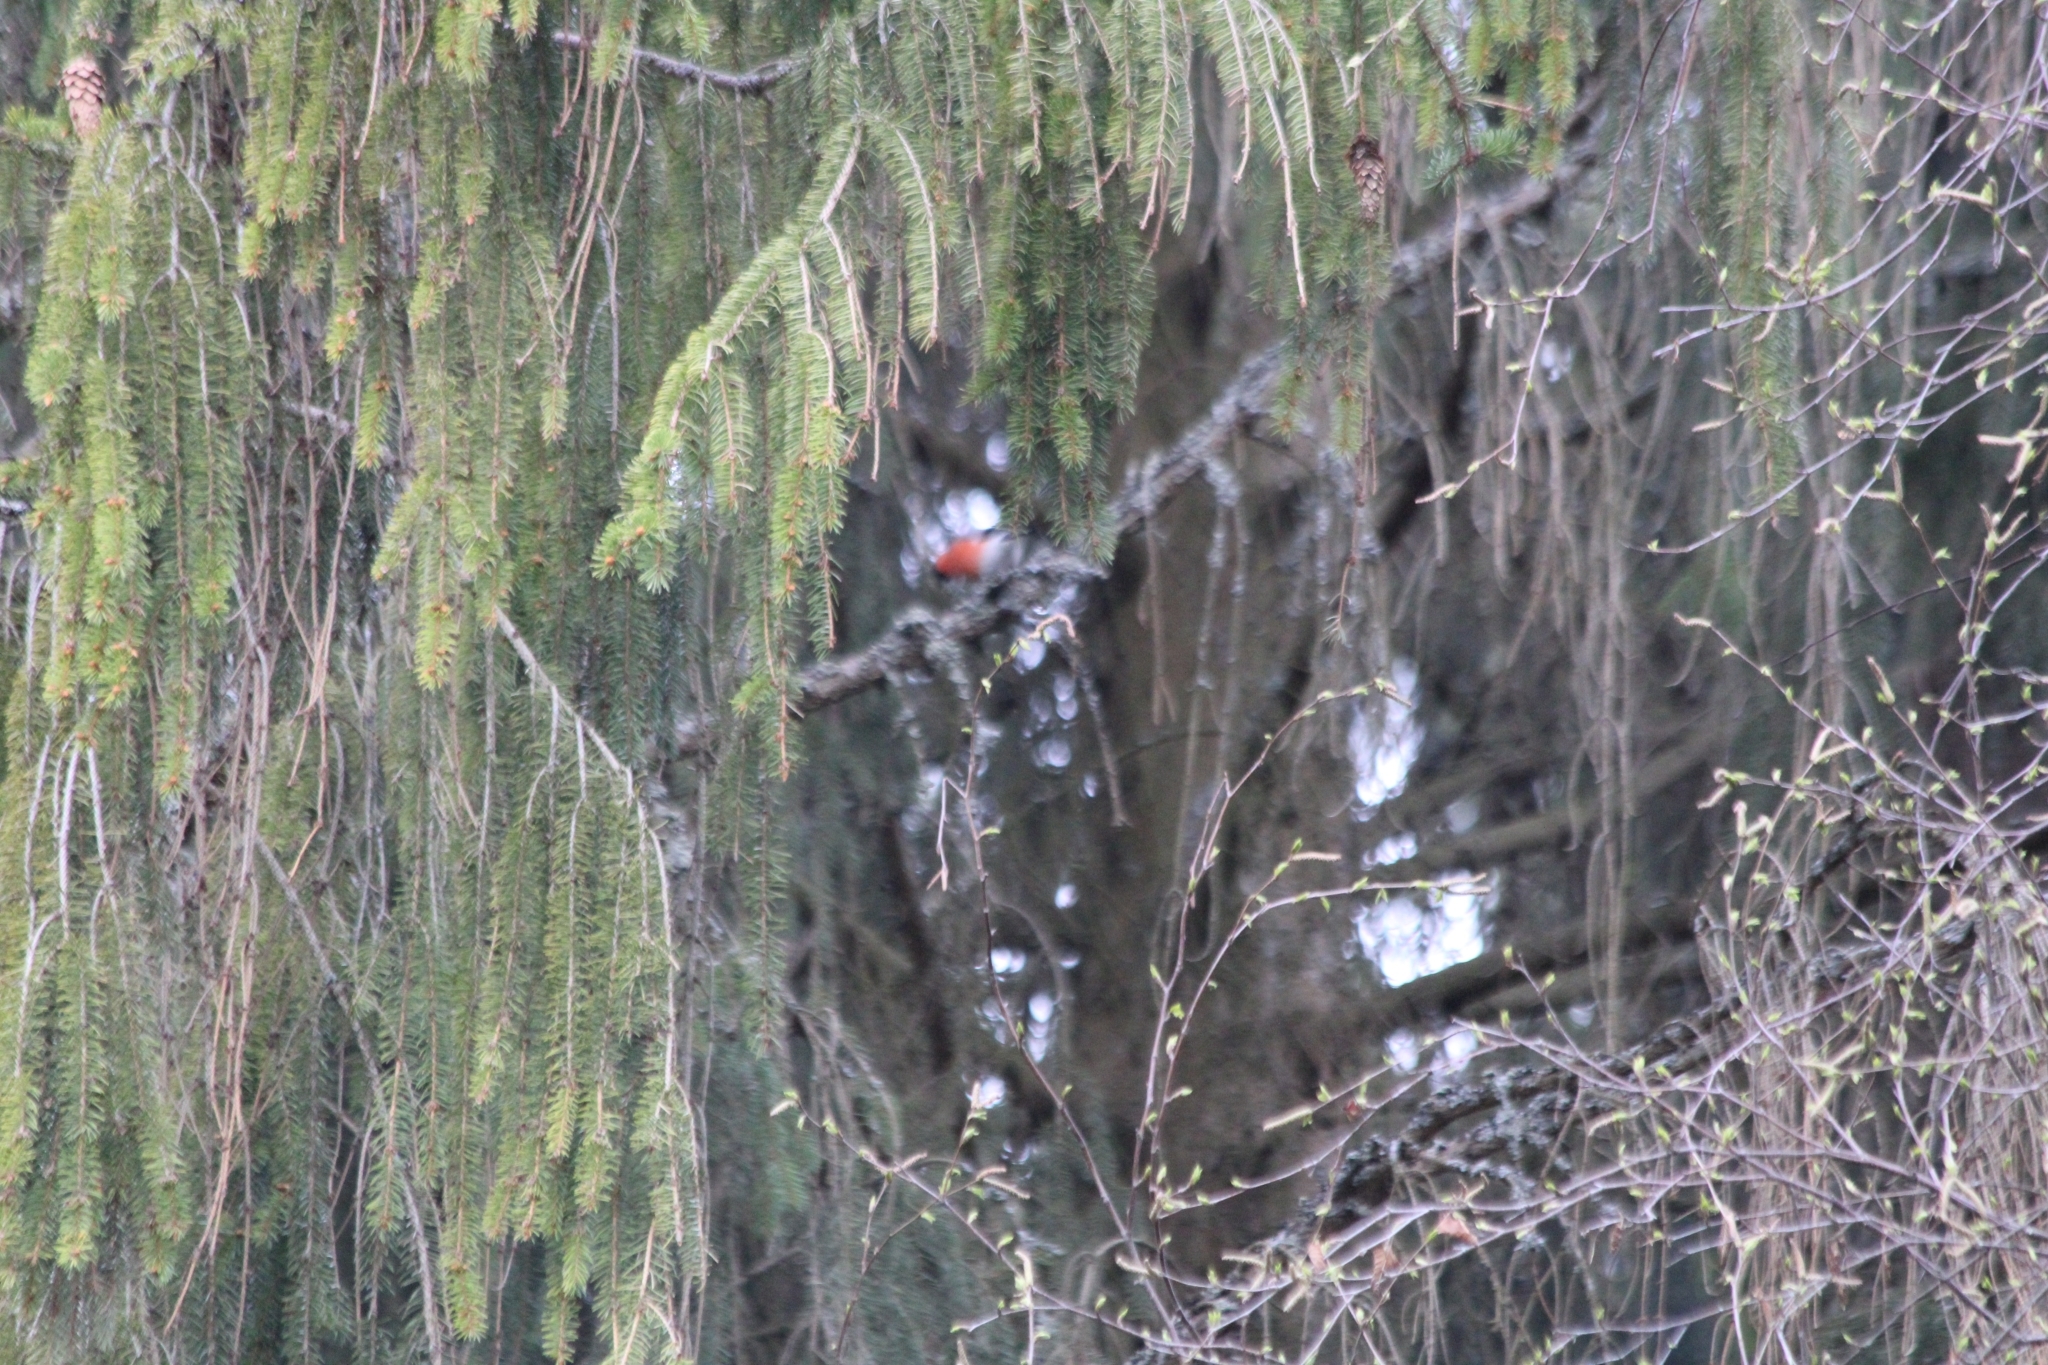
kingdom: Animalia
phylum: Chordata
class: Aves
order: Passeriformes
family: Fringillidae
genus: Pyrrhula
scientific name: Pyrrhula pyrrhula
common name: Eurasian bullfinch
